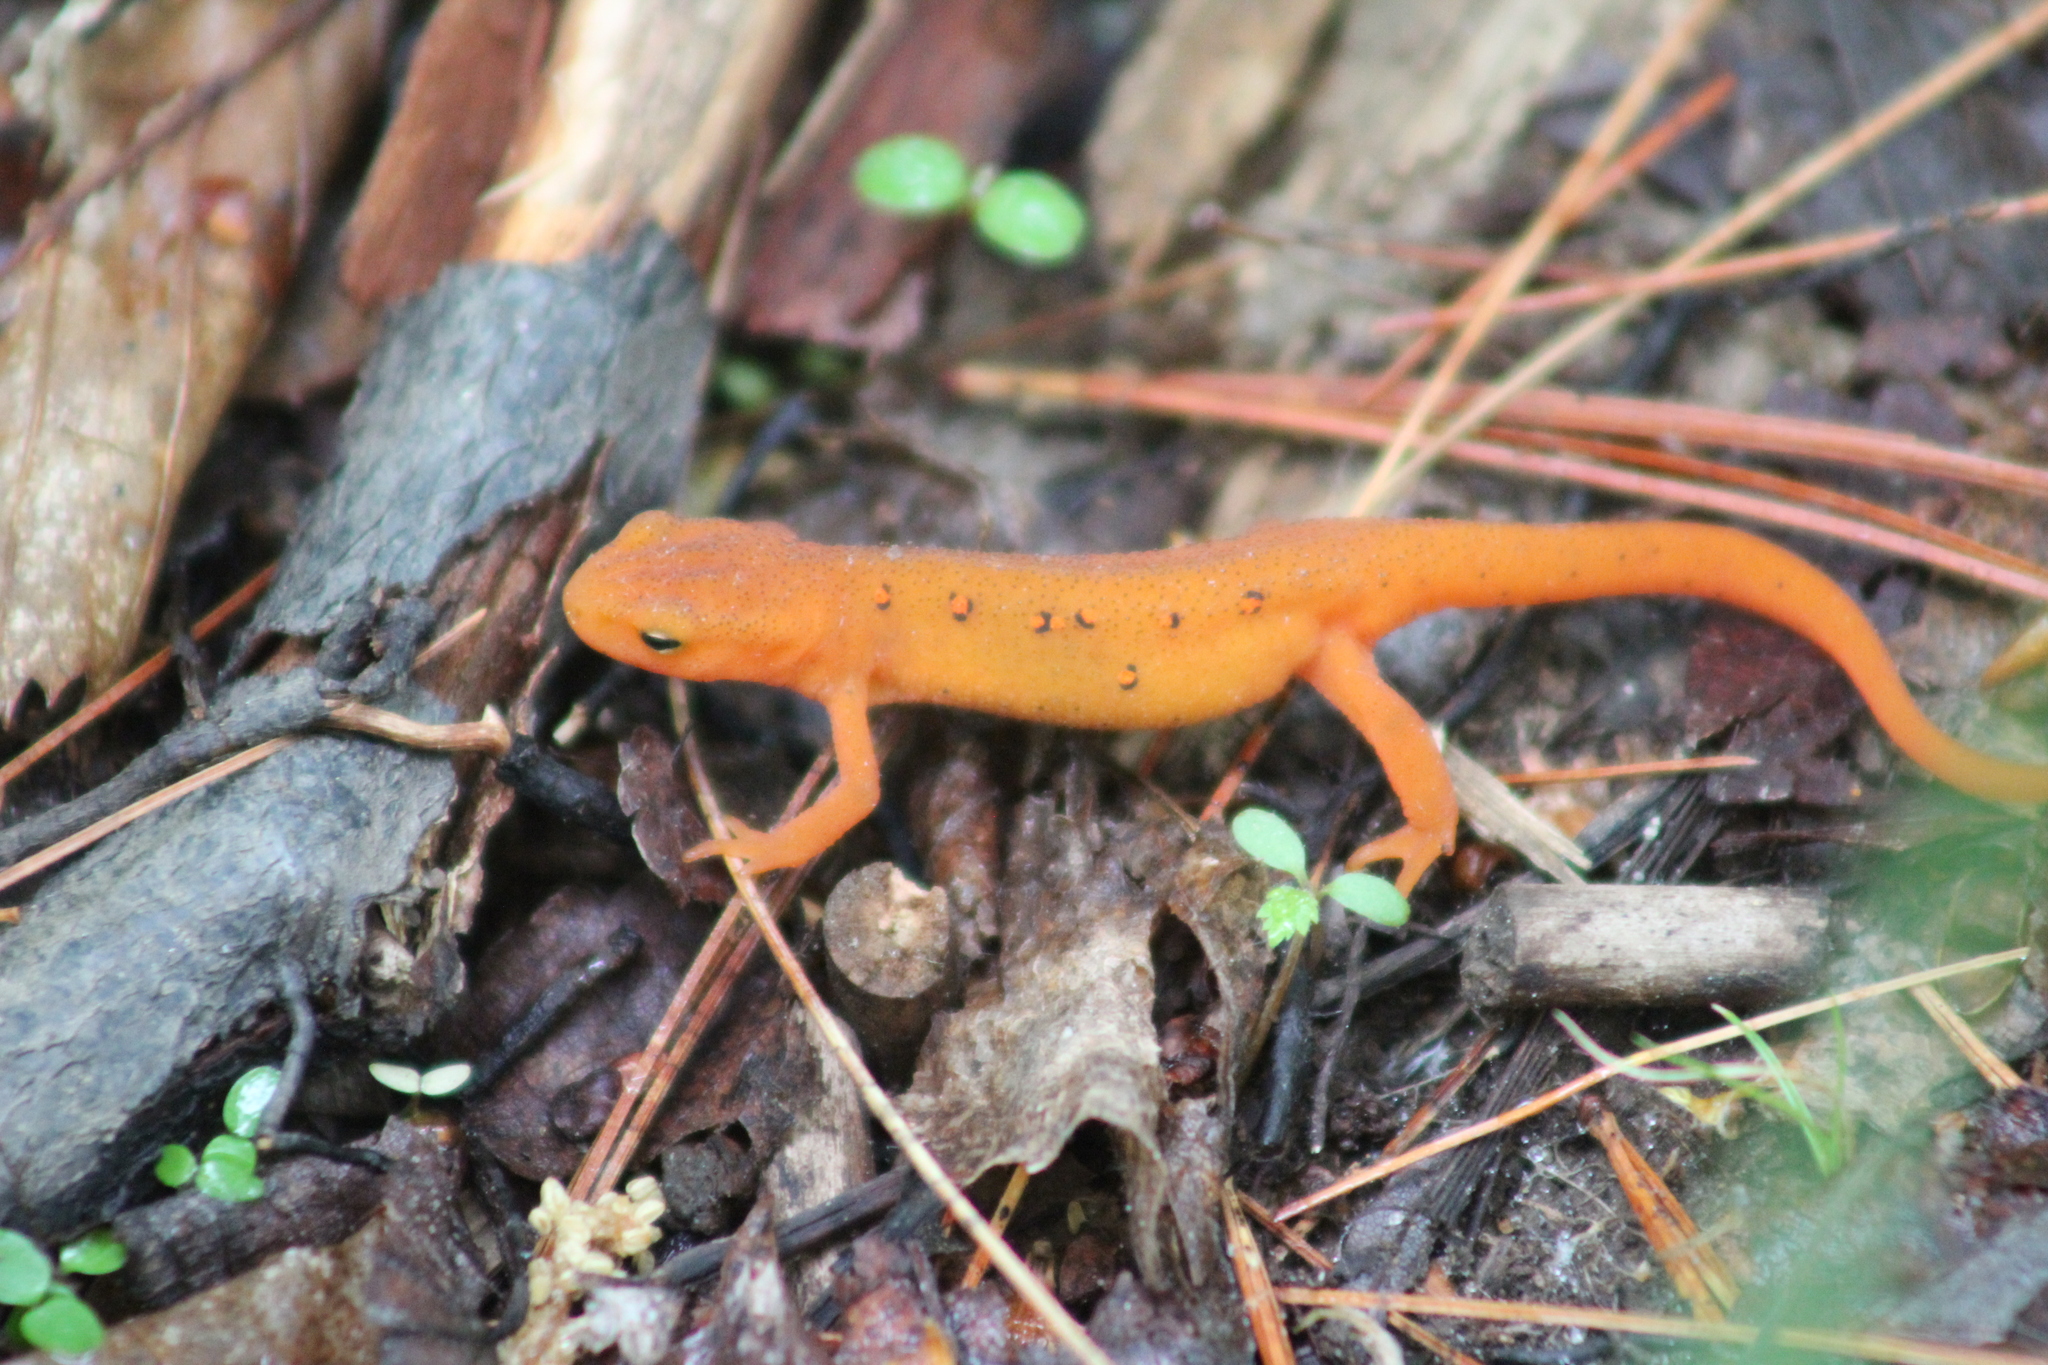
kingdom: Animalia
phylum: Chordata
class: Amphibia
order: Caudata
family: Salamandridae
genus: Notophthalmus
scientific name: Notophthalmus viridescens
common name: Eastern newt
